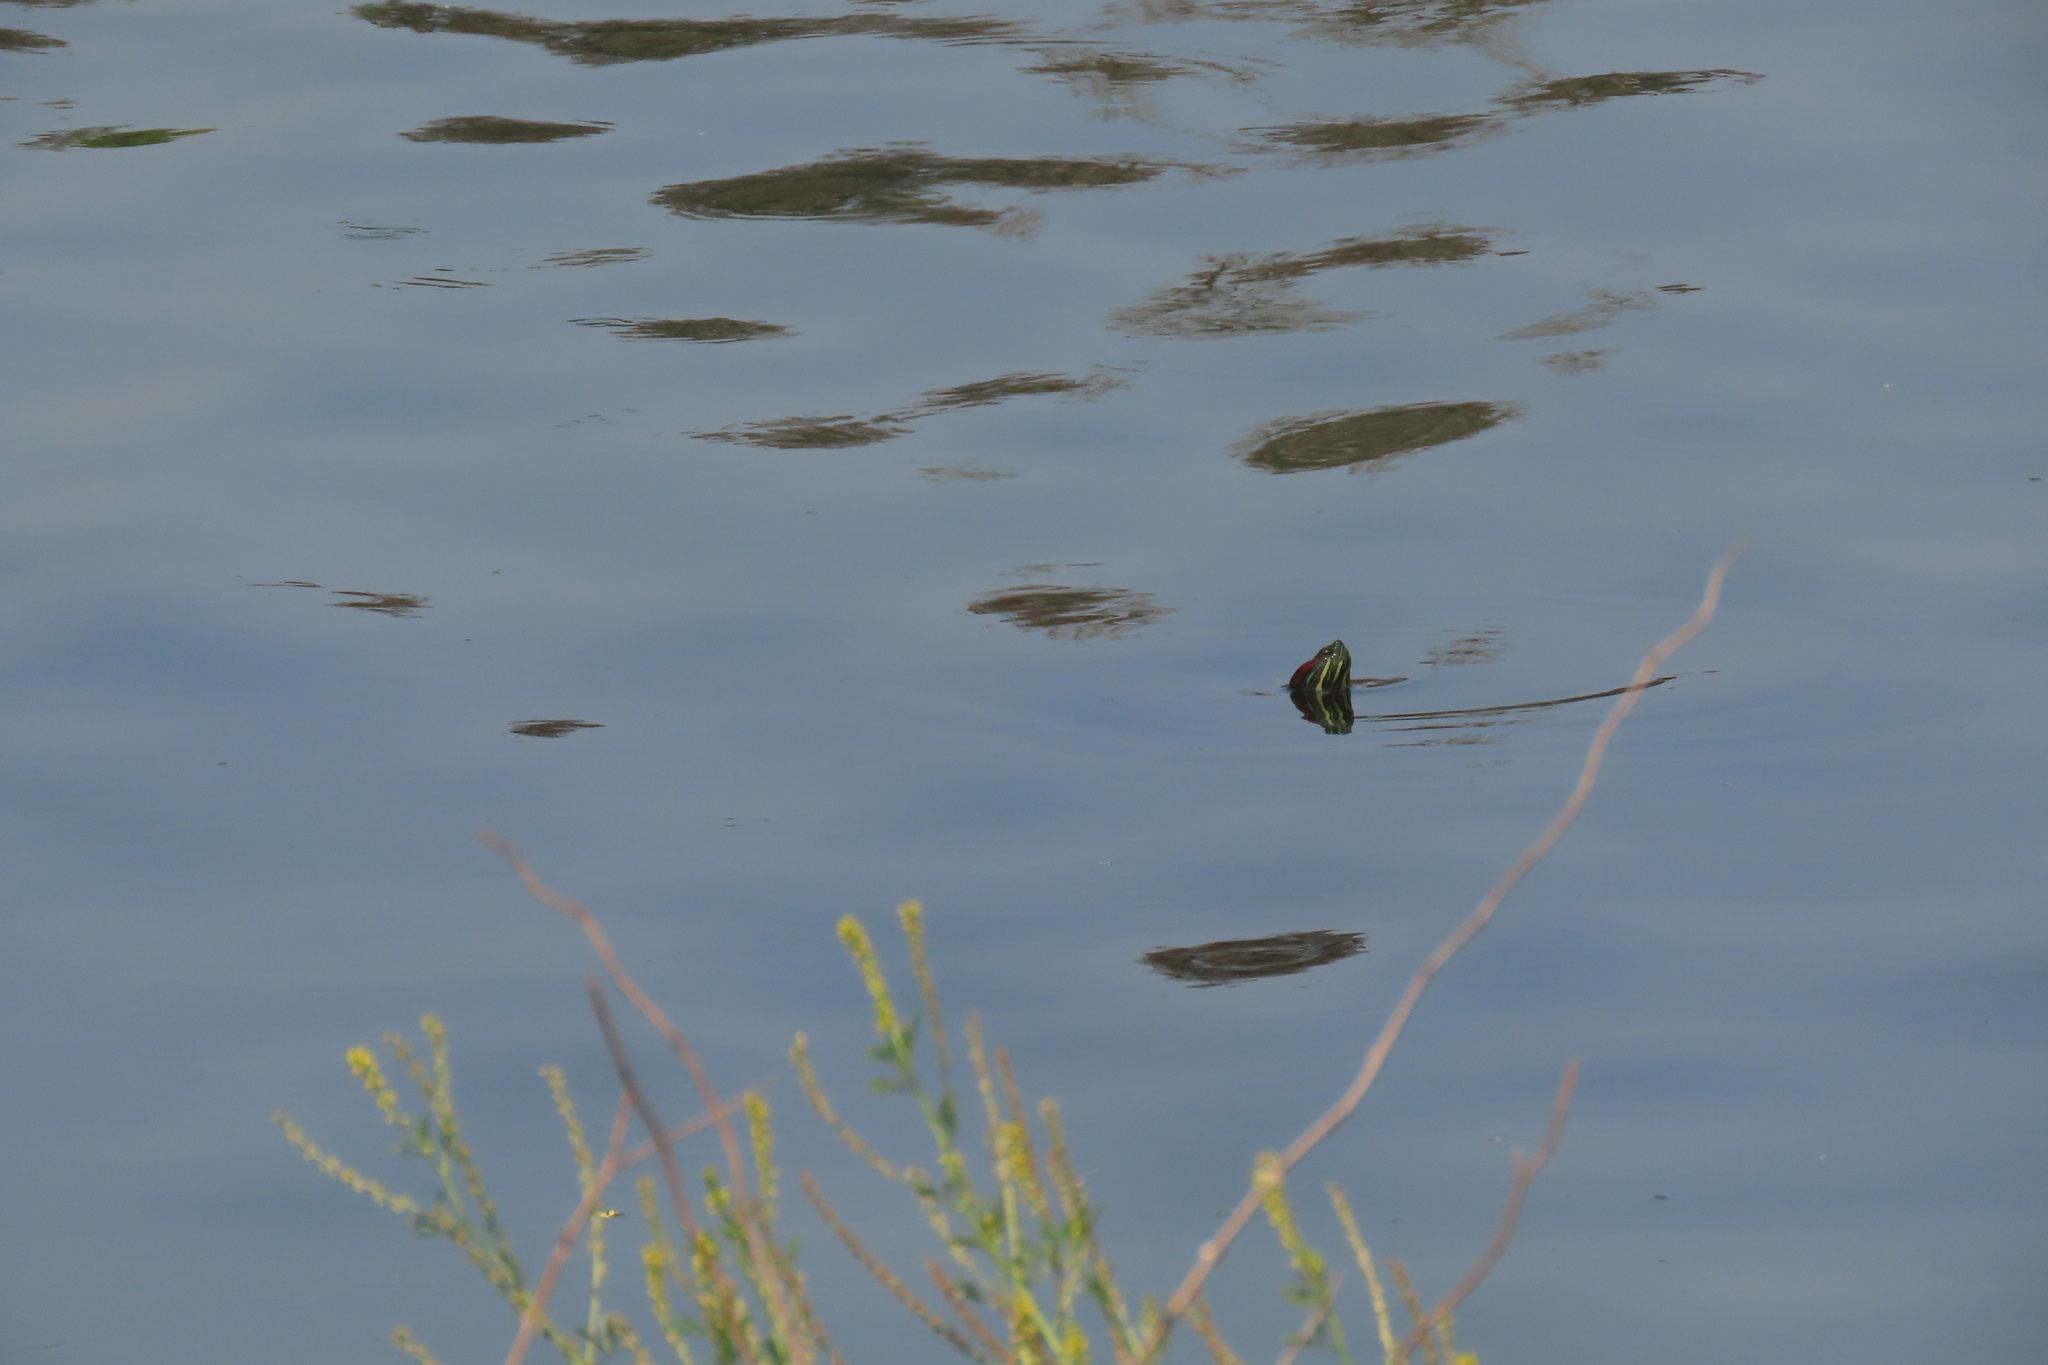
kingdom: Animalia
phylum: Chordata
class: Testudines
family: Emydidae
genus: Trachemys
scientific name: Trachemys scripta
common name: Slider
